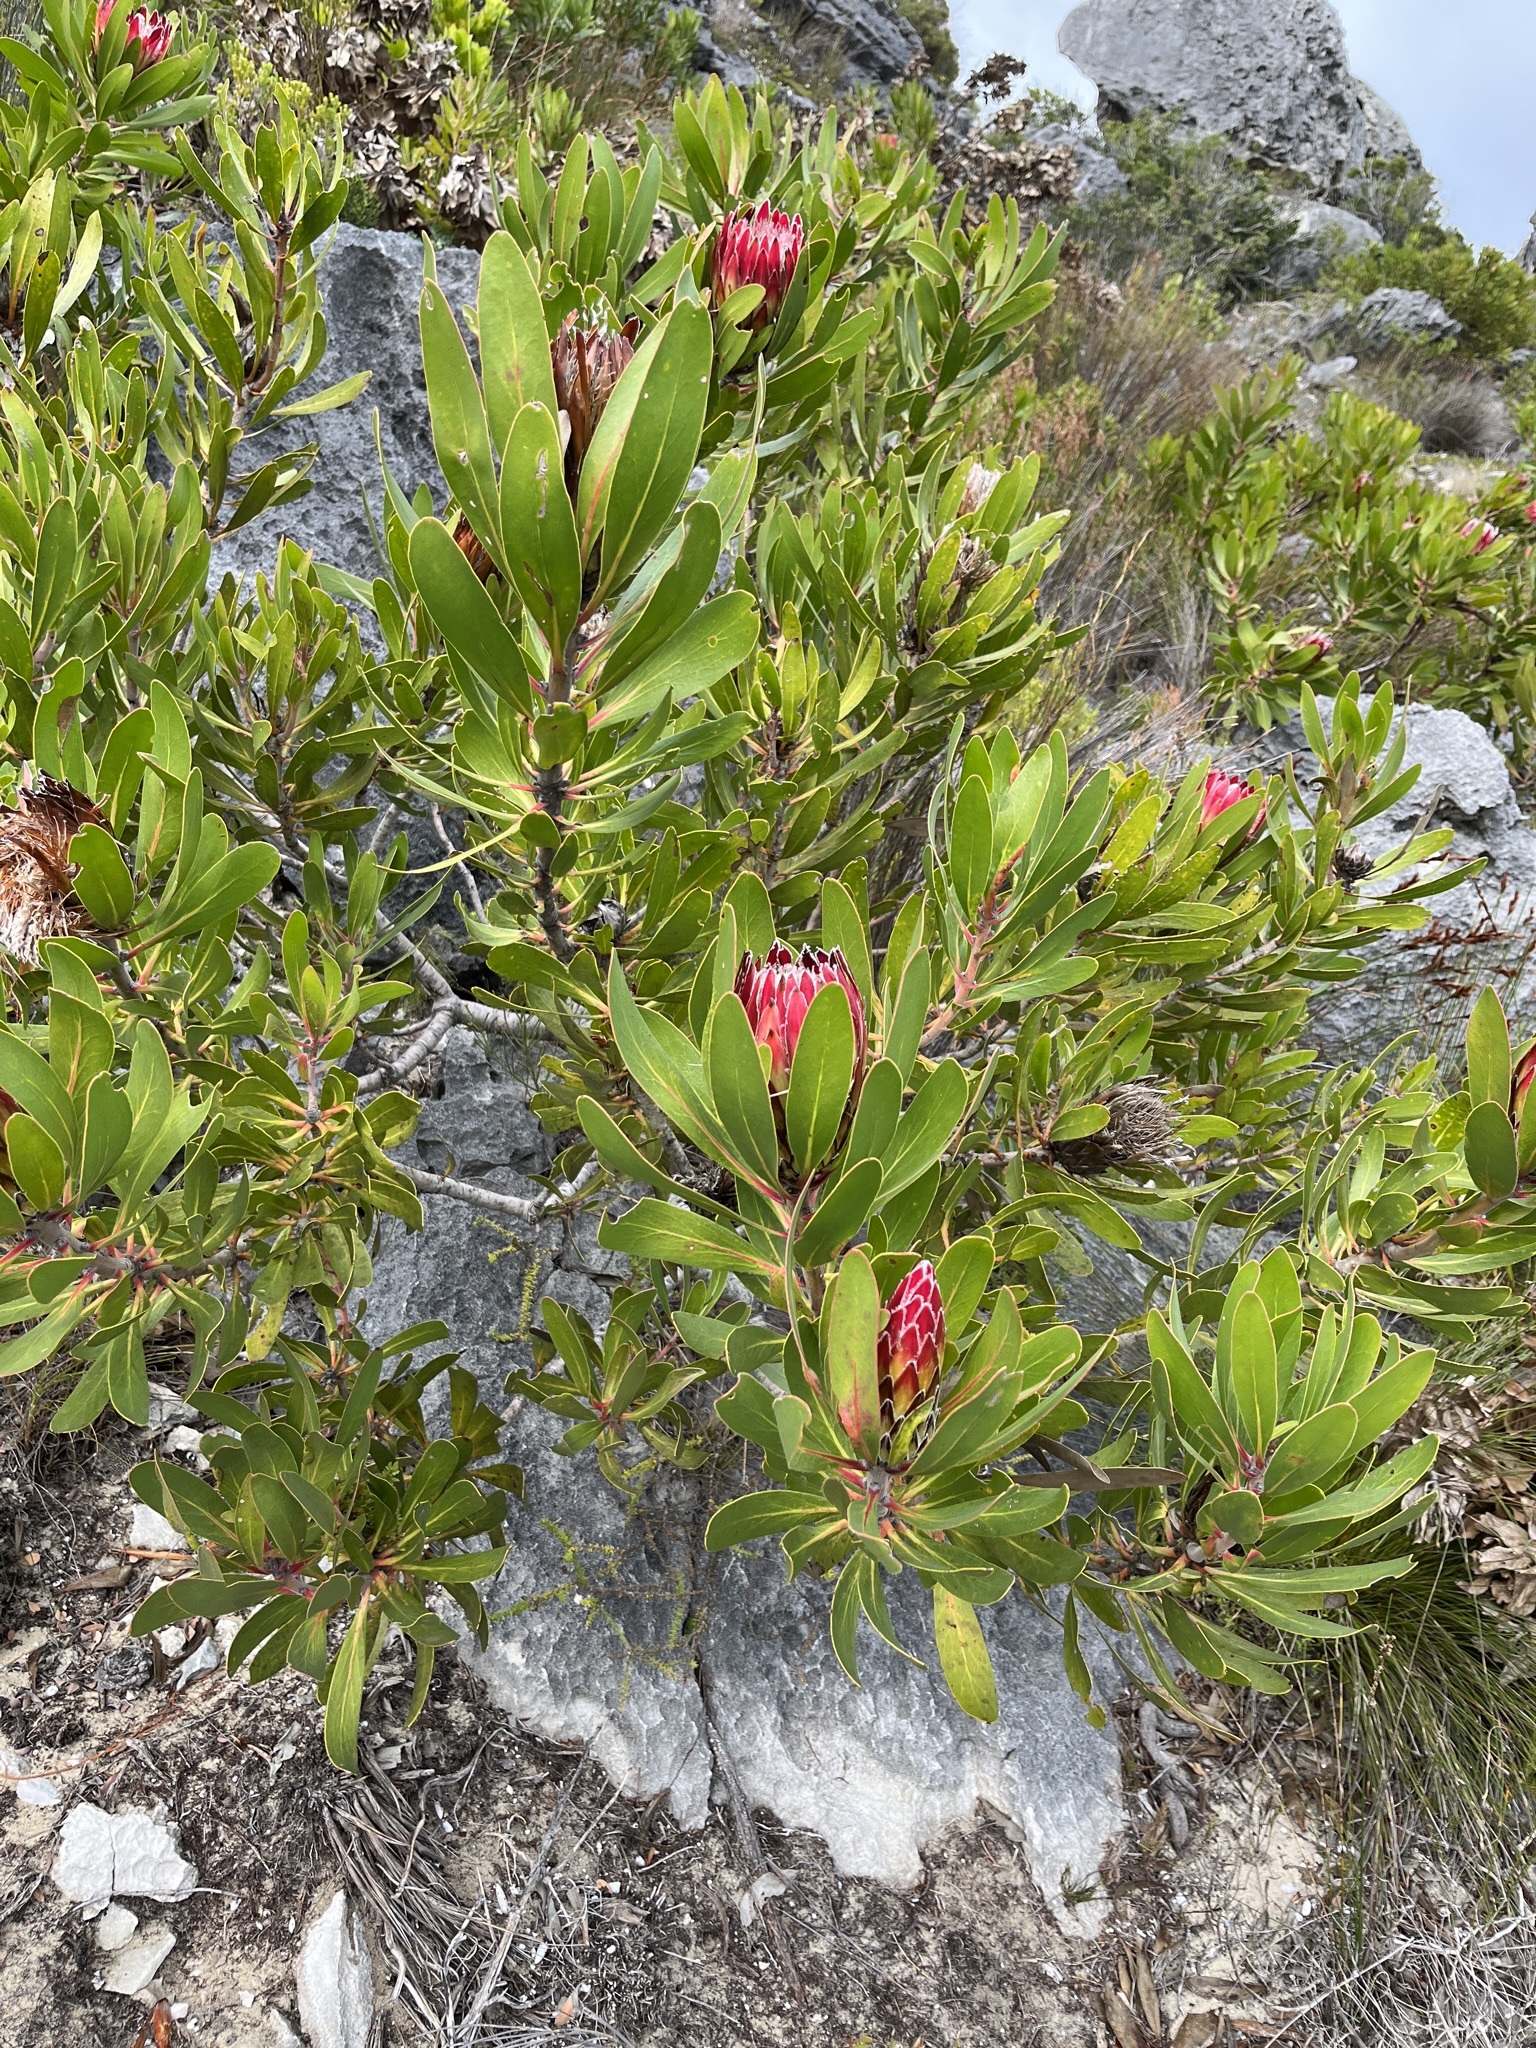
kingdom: Plantae
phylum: Tracheophyta
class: Magnoliopsida
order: Proteales
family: Proteaceae
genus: Protea
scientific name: Protea obtusifolia
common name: Bredasdorp sugarbush
